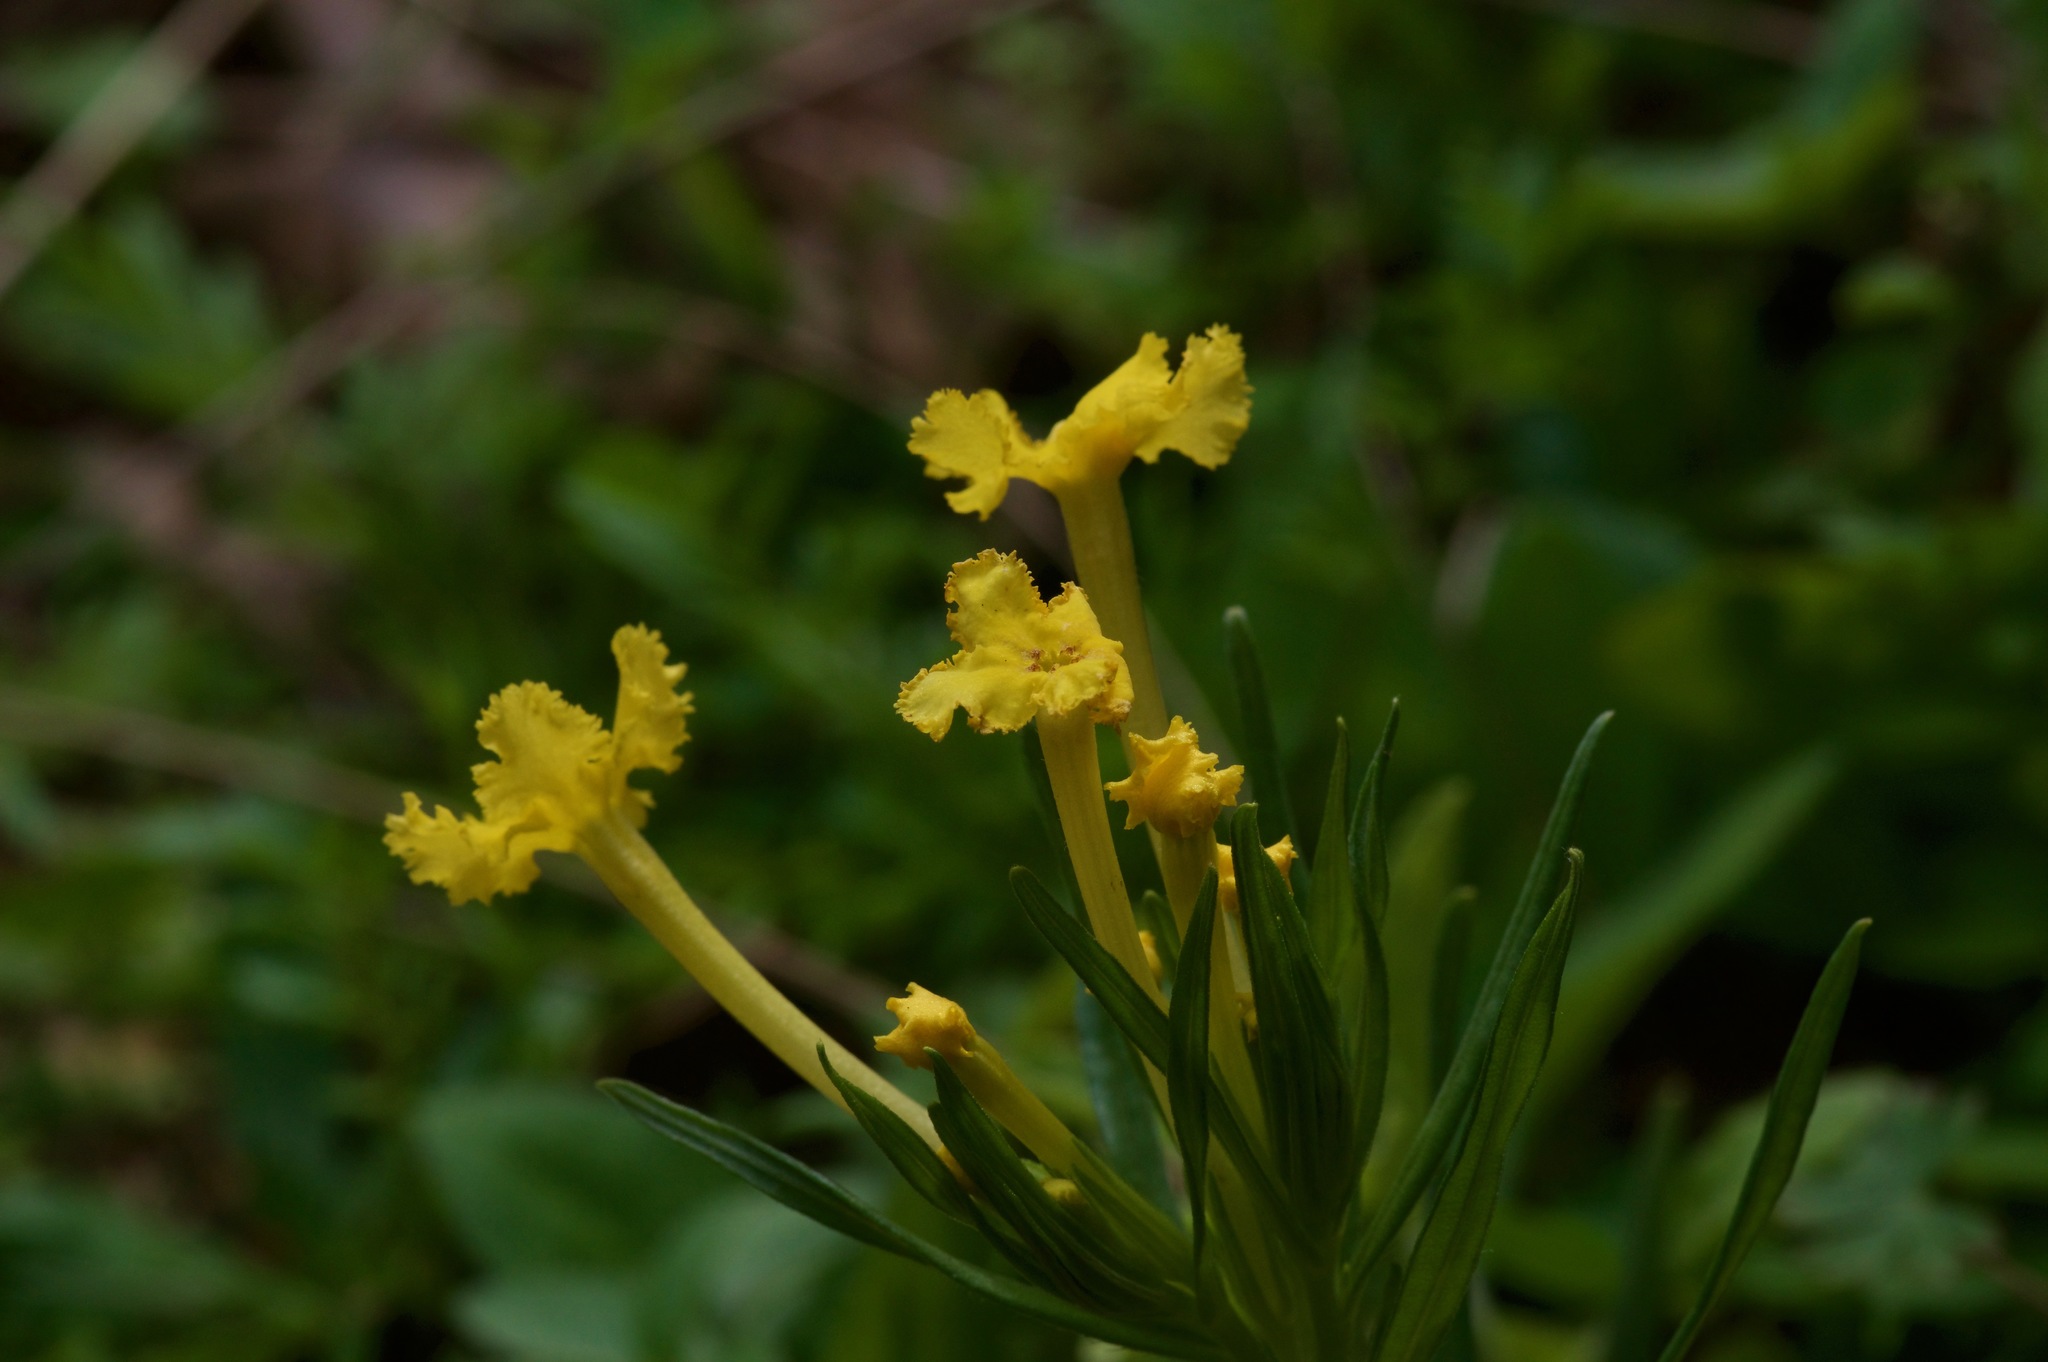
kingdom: Plantae
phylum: Tracheophyta
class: Magnoliopsida
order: Boraginales
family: Boraginaceae
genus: Lithospermum
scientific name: Lithospermum incisum
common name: Fringed gromwell
